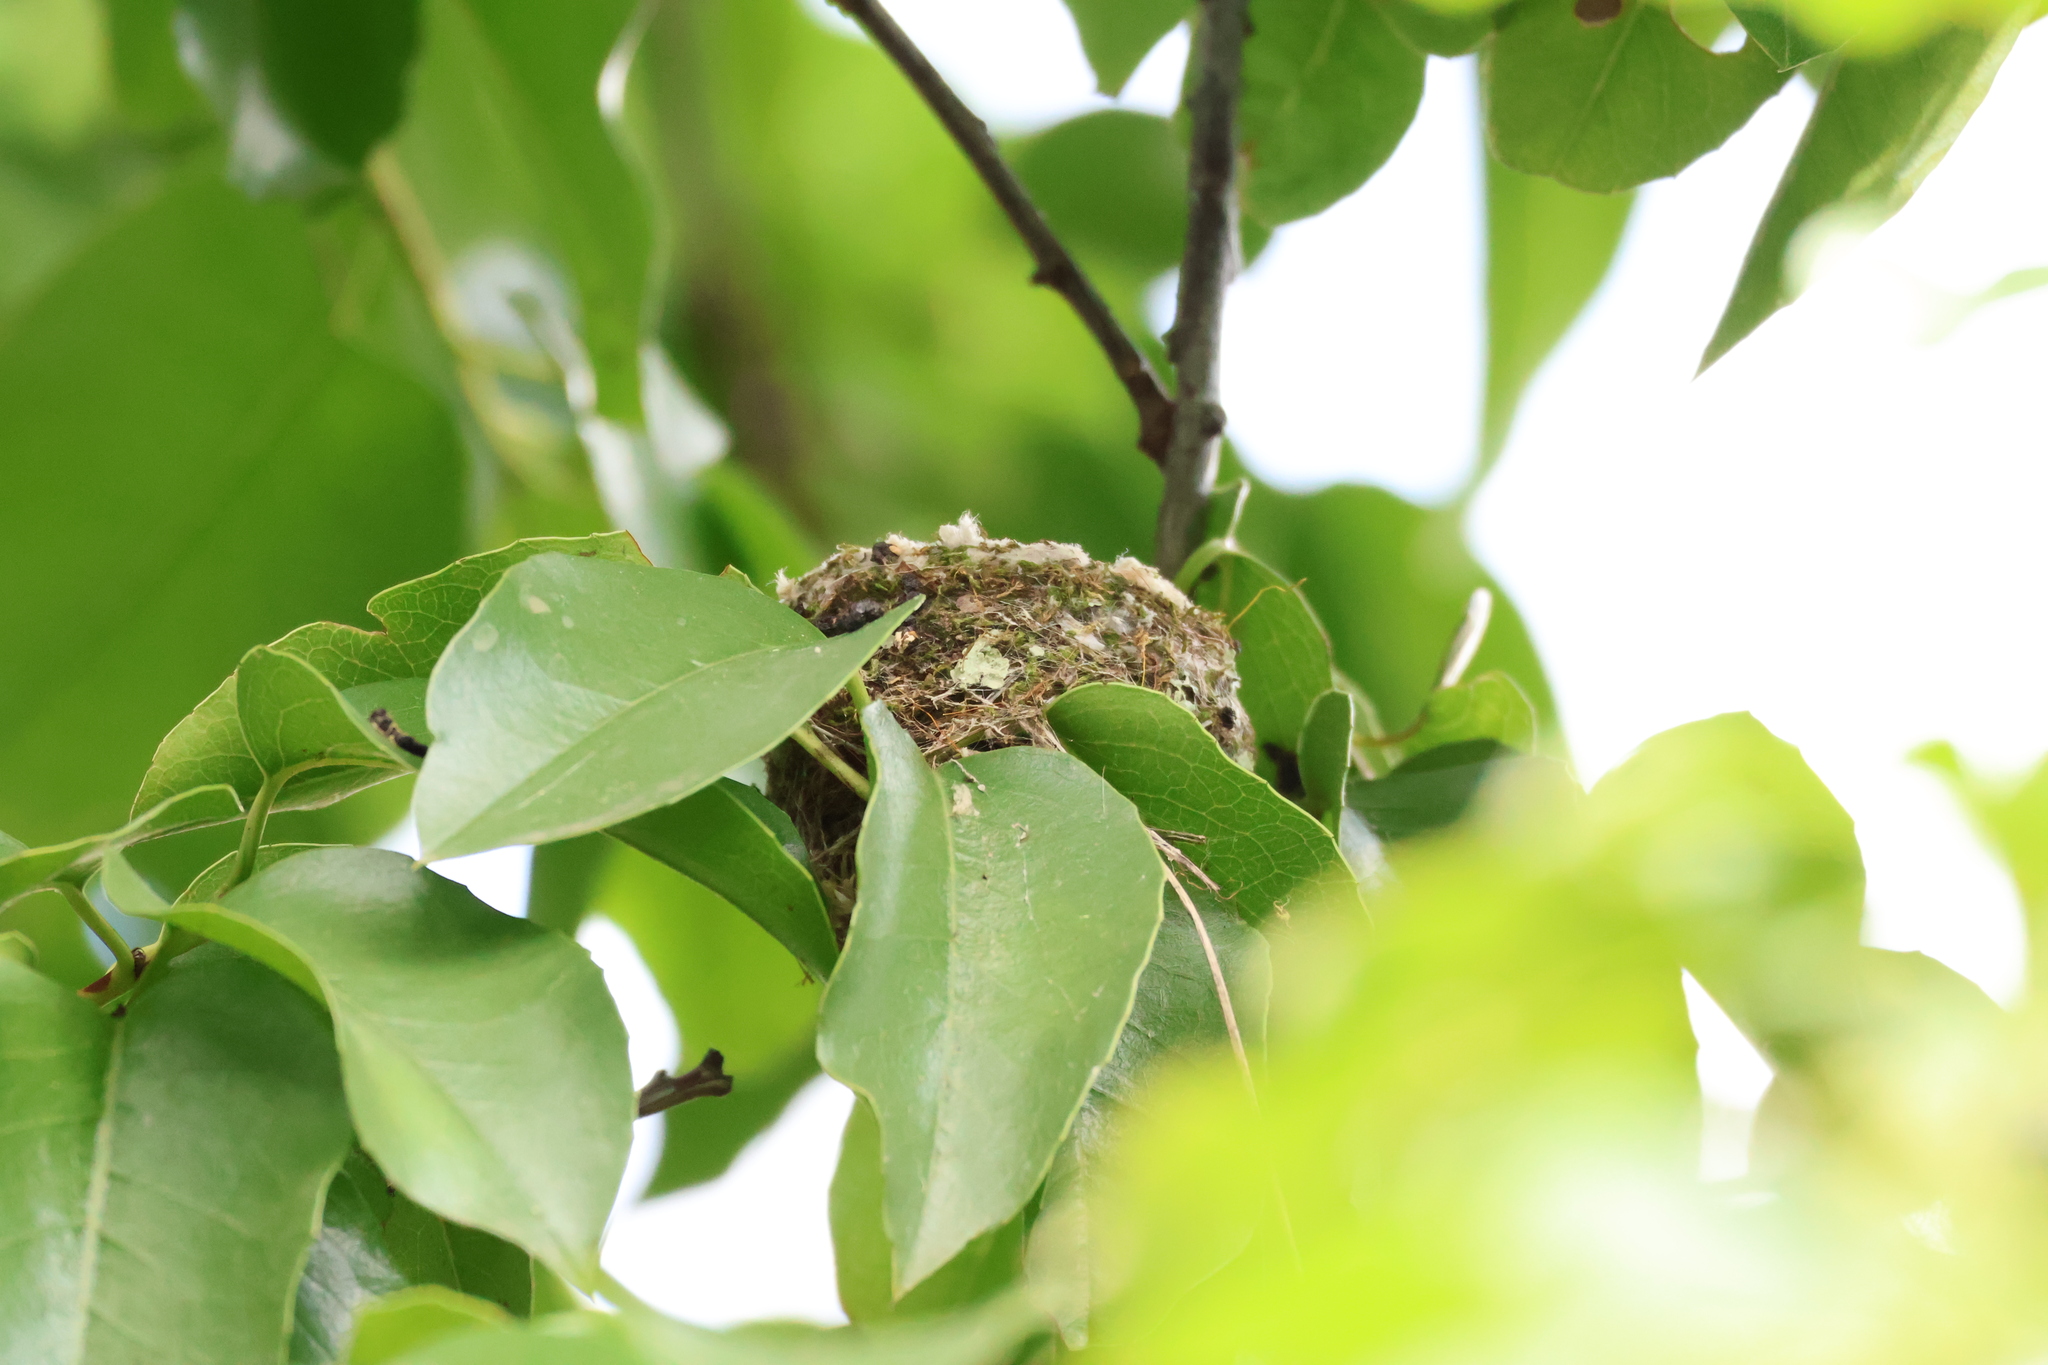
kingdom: Animalia
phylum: Chordata
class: Aves
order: Apodiformes
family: Trochilidae
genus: Selasphorus
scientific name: Selasphorus sasin
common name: Allen's hummingbird
